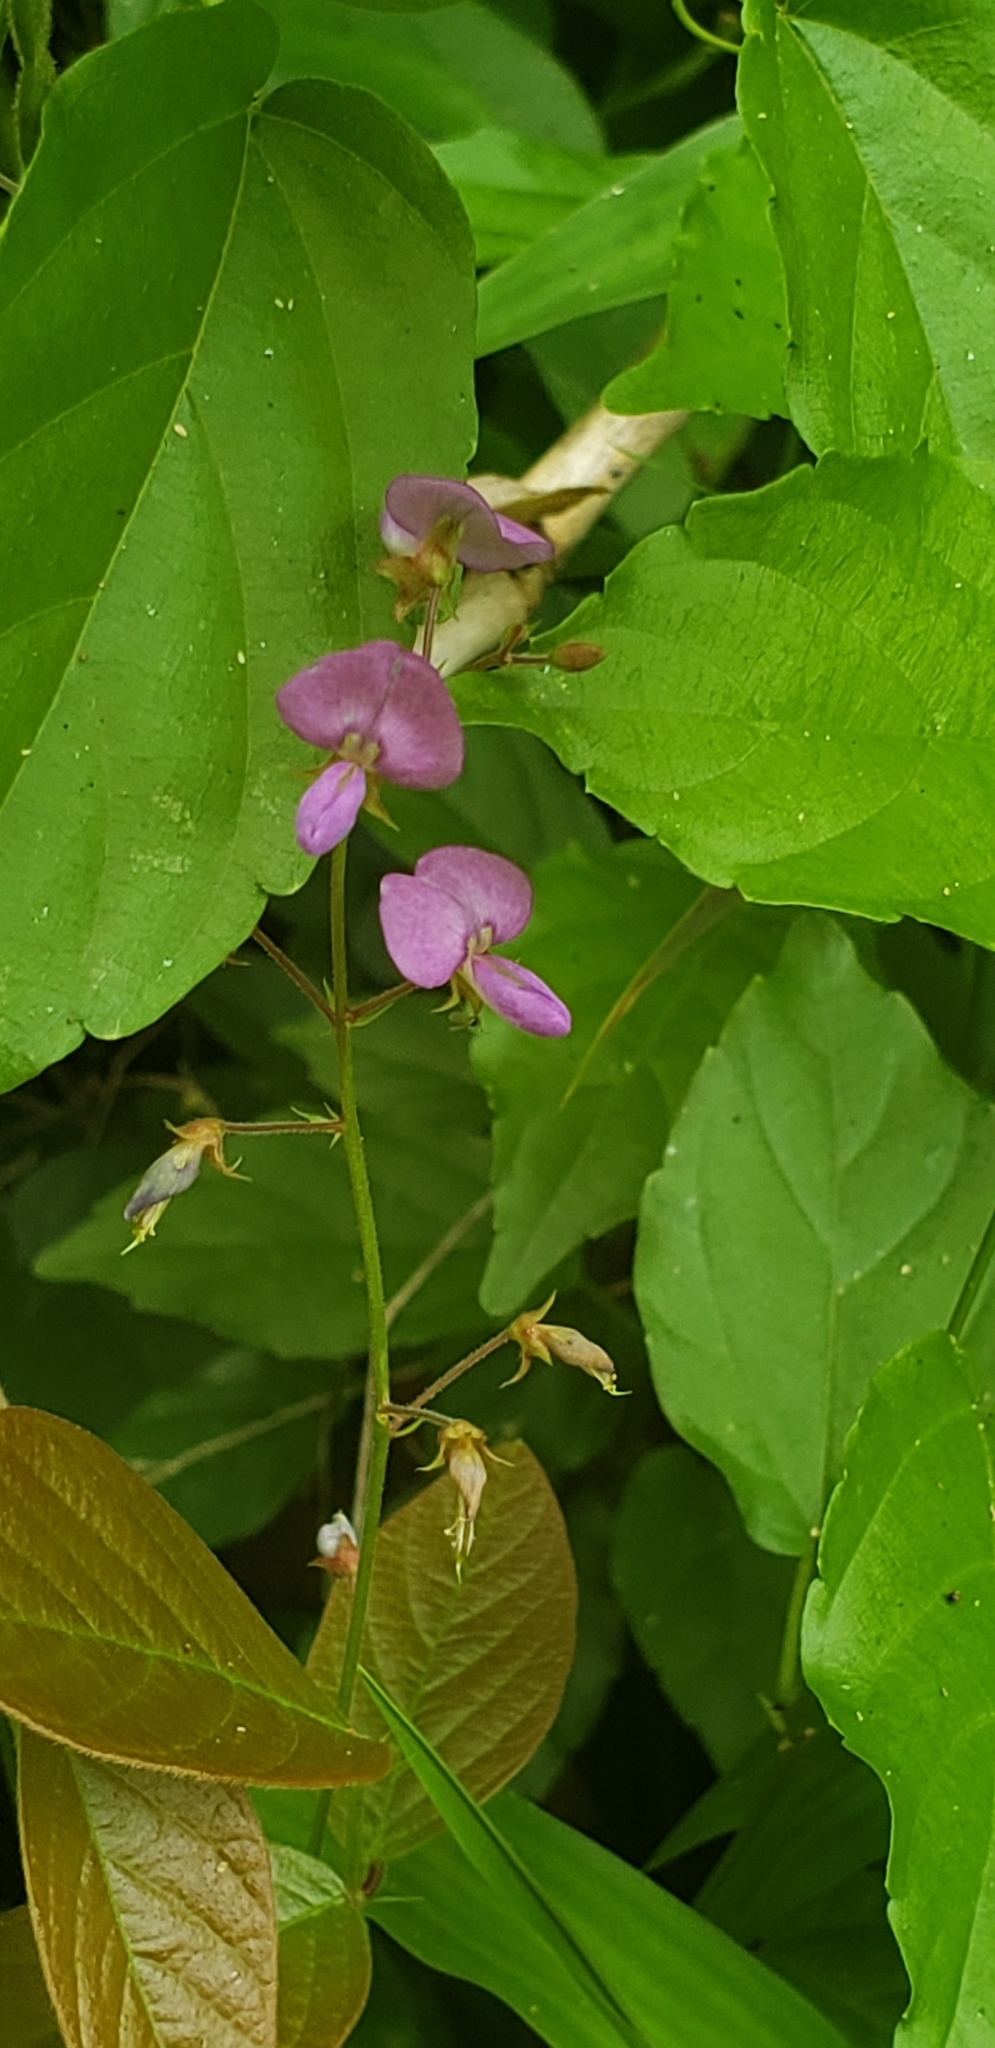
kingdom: Plantae
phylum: Tracheophyta
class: Magnoliopsida
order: Fabales
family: Fabaceae
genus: Desmodium
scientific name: Desmodium incanum
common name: Tickclover
